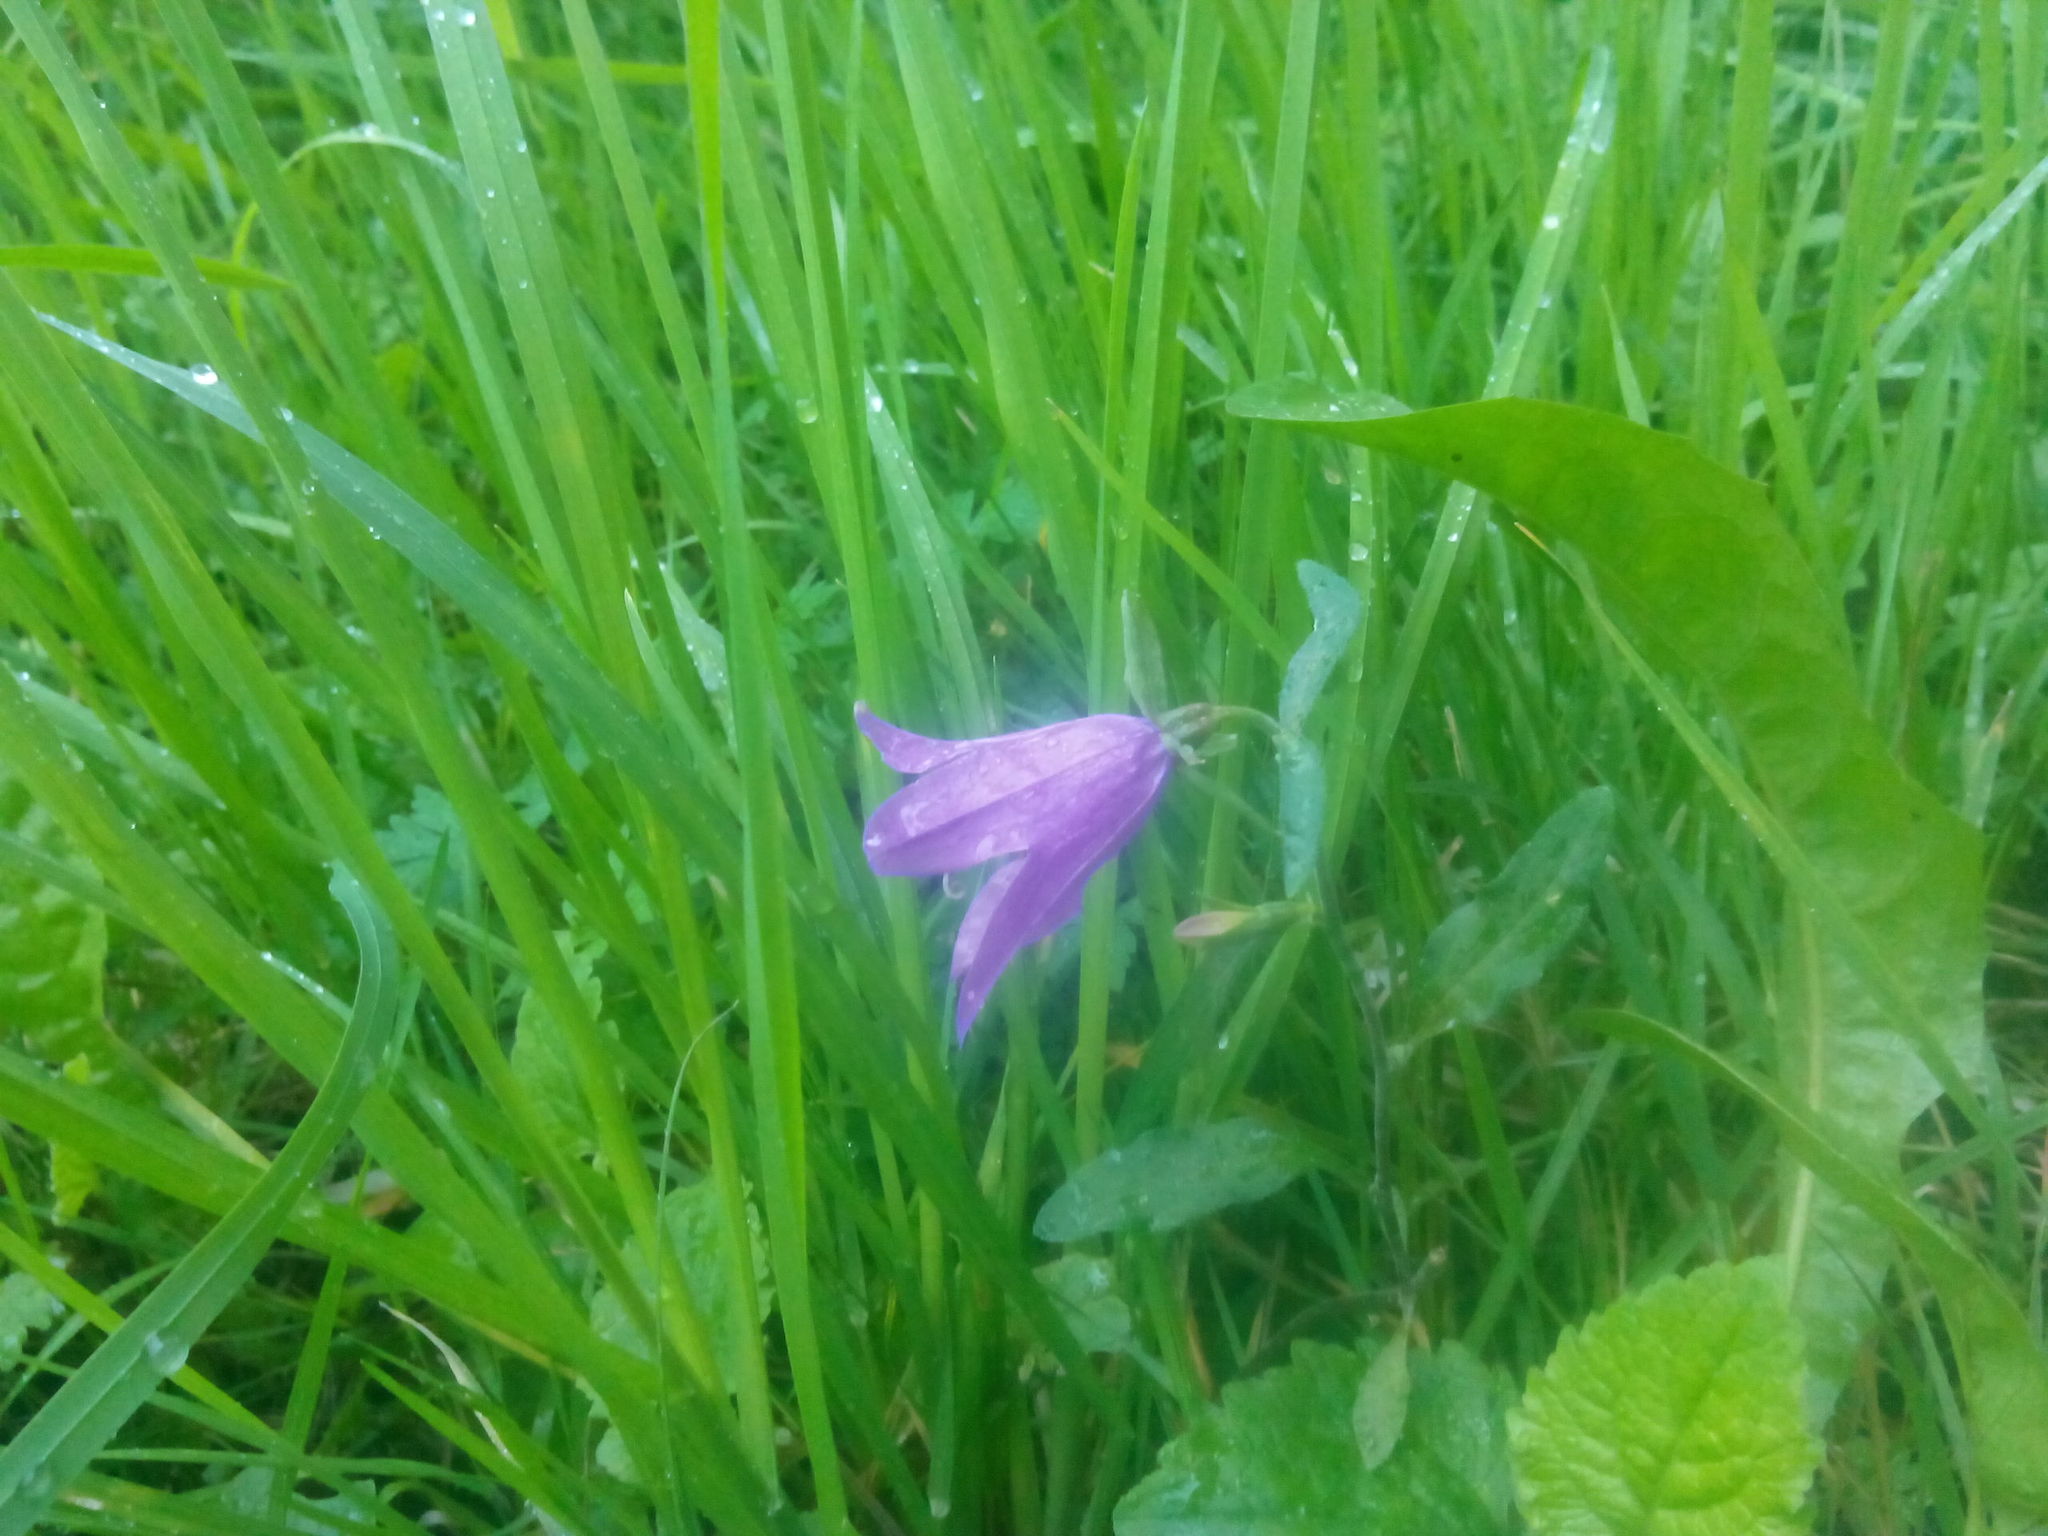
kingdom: Plantae
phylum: Tracheophyta
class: Magnoliopsida
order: Asterales
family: Campanulaceae
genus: Campanula
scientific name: Campanula patula
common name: Spreading bellflower
